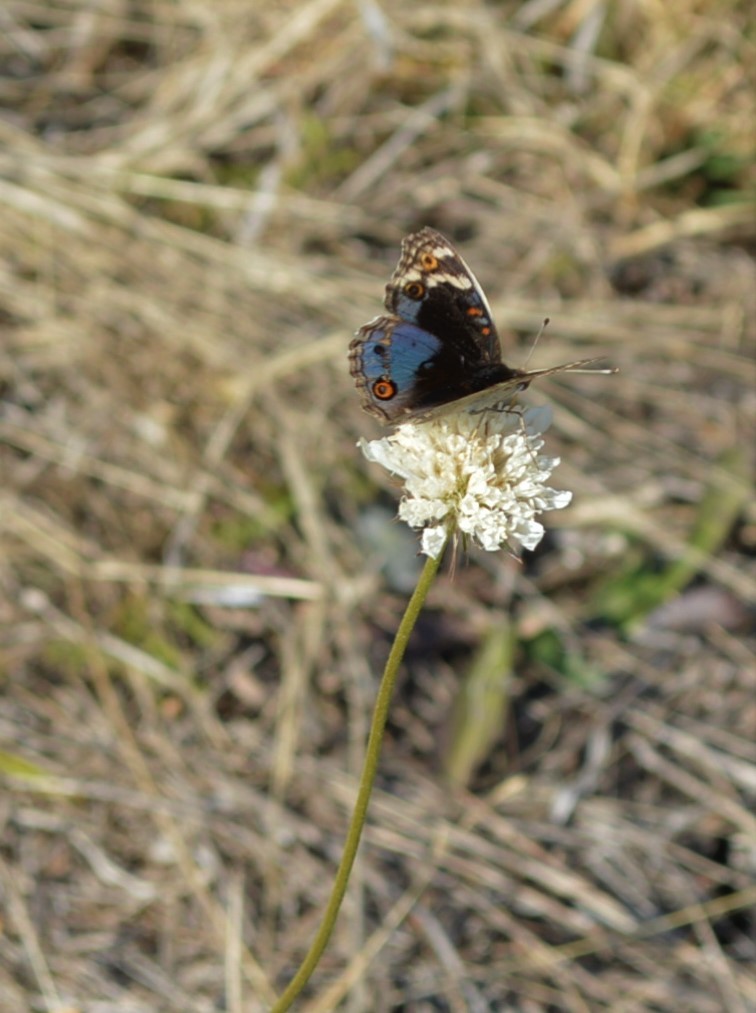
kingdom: Animalia
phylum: Arthropoda
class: Insecta
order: Lepidoptera
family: Nymphalidae
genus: Junonia
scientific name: Junonia orithya
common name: Blue pansy
